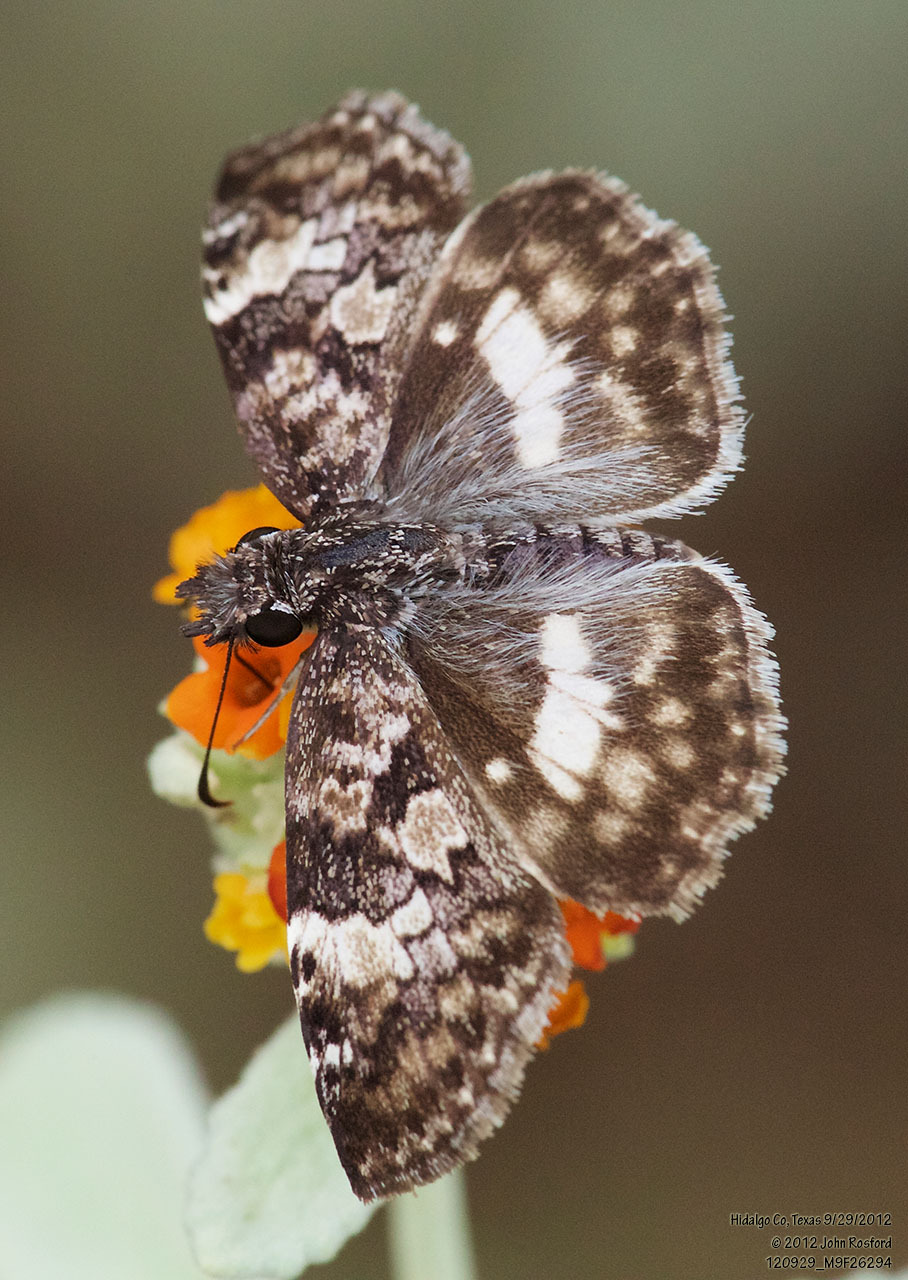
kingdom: Animalia
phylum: Arthropoda
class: Insecta
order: Lepidoptera
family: Hesperiidae
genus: Chiothion
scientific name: Chiothion georgina
